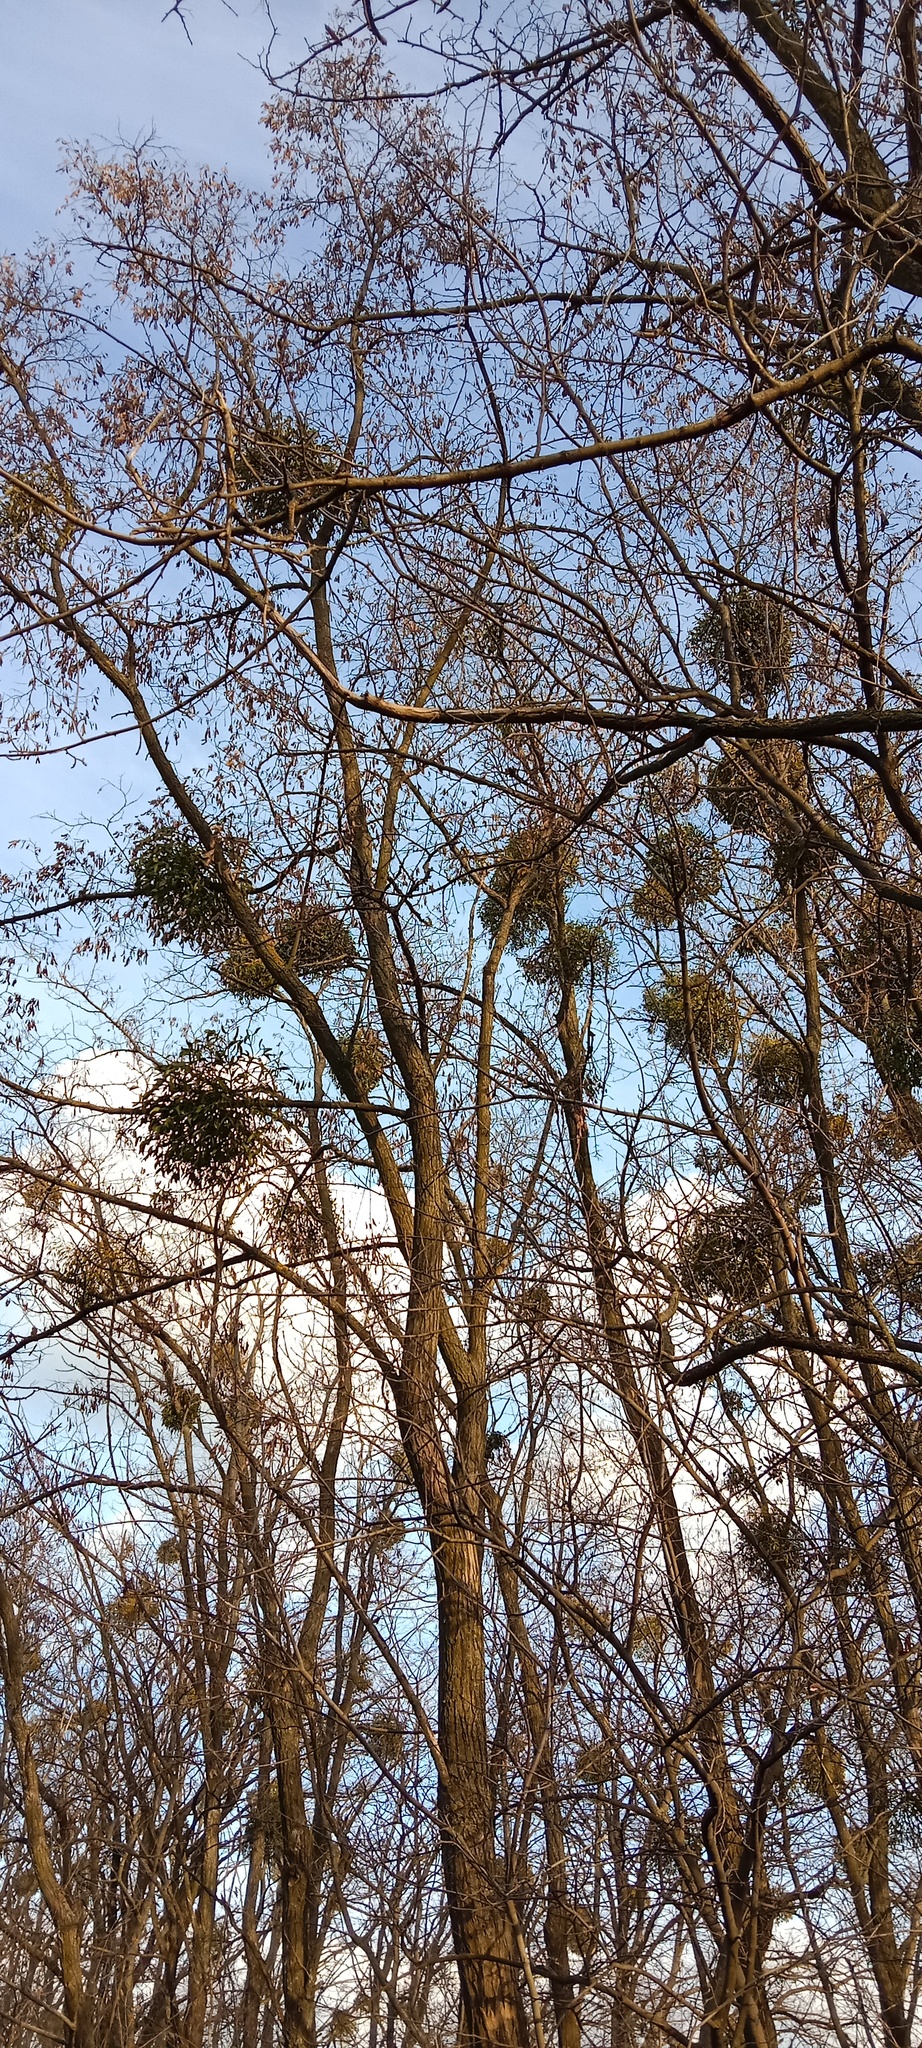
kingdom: Plantae
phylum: Tracheophyta
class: Magnoliopsida
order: Santalales
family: Viscaceae
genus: Viscum
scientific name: Viscum album
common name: Mistletoe
